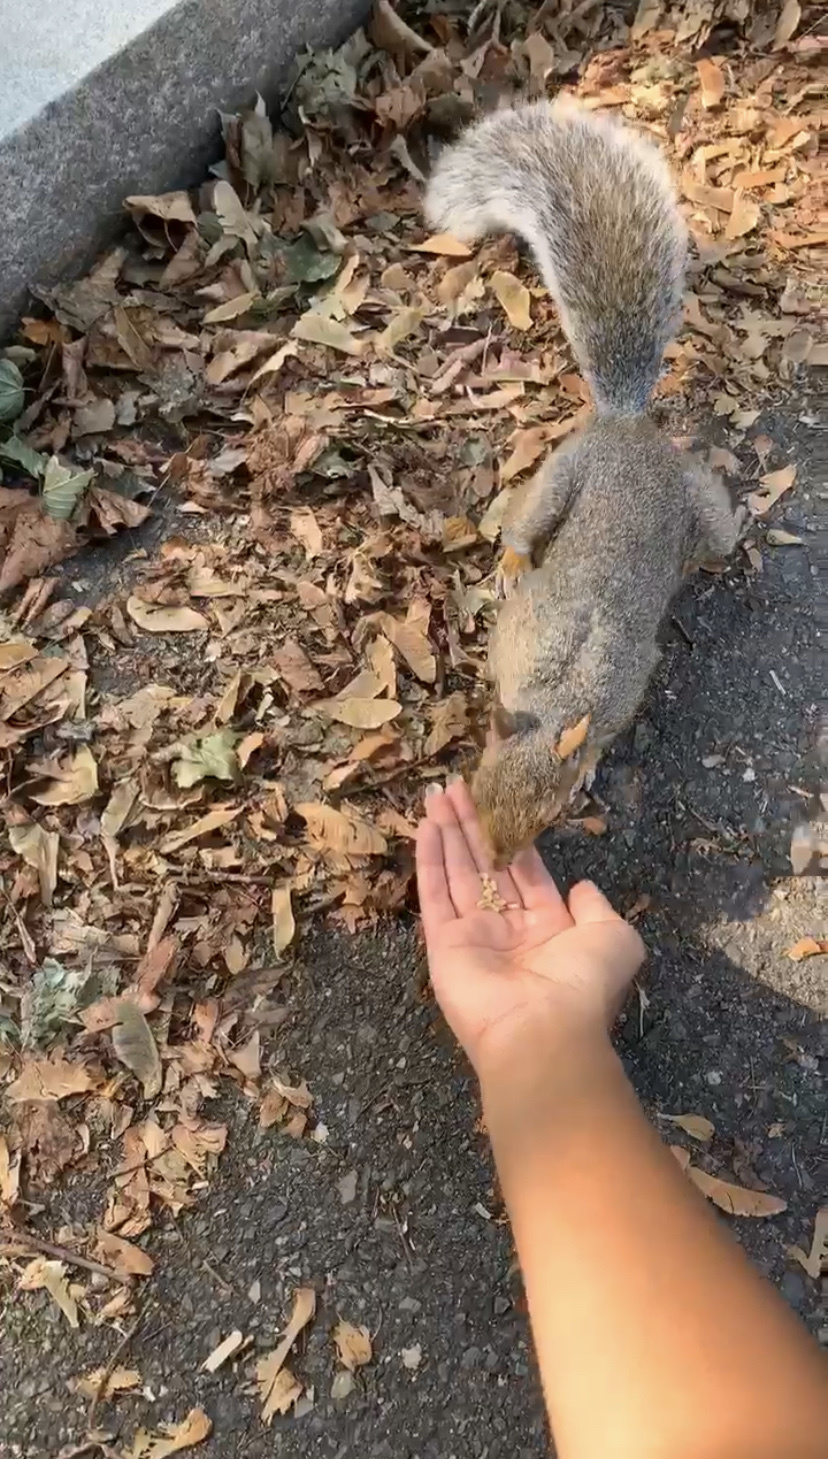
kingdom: Animalia
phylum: Chordata
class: Mammalia
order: Rodentia
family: Sciuridae
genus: Sciurus
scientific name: Sciurus carolinensis
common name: Eastern gray squirrel
